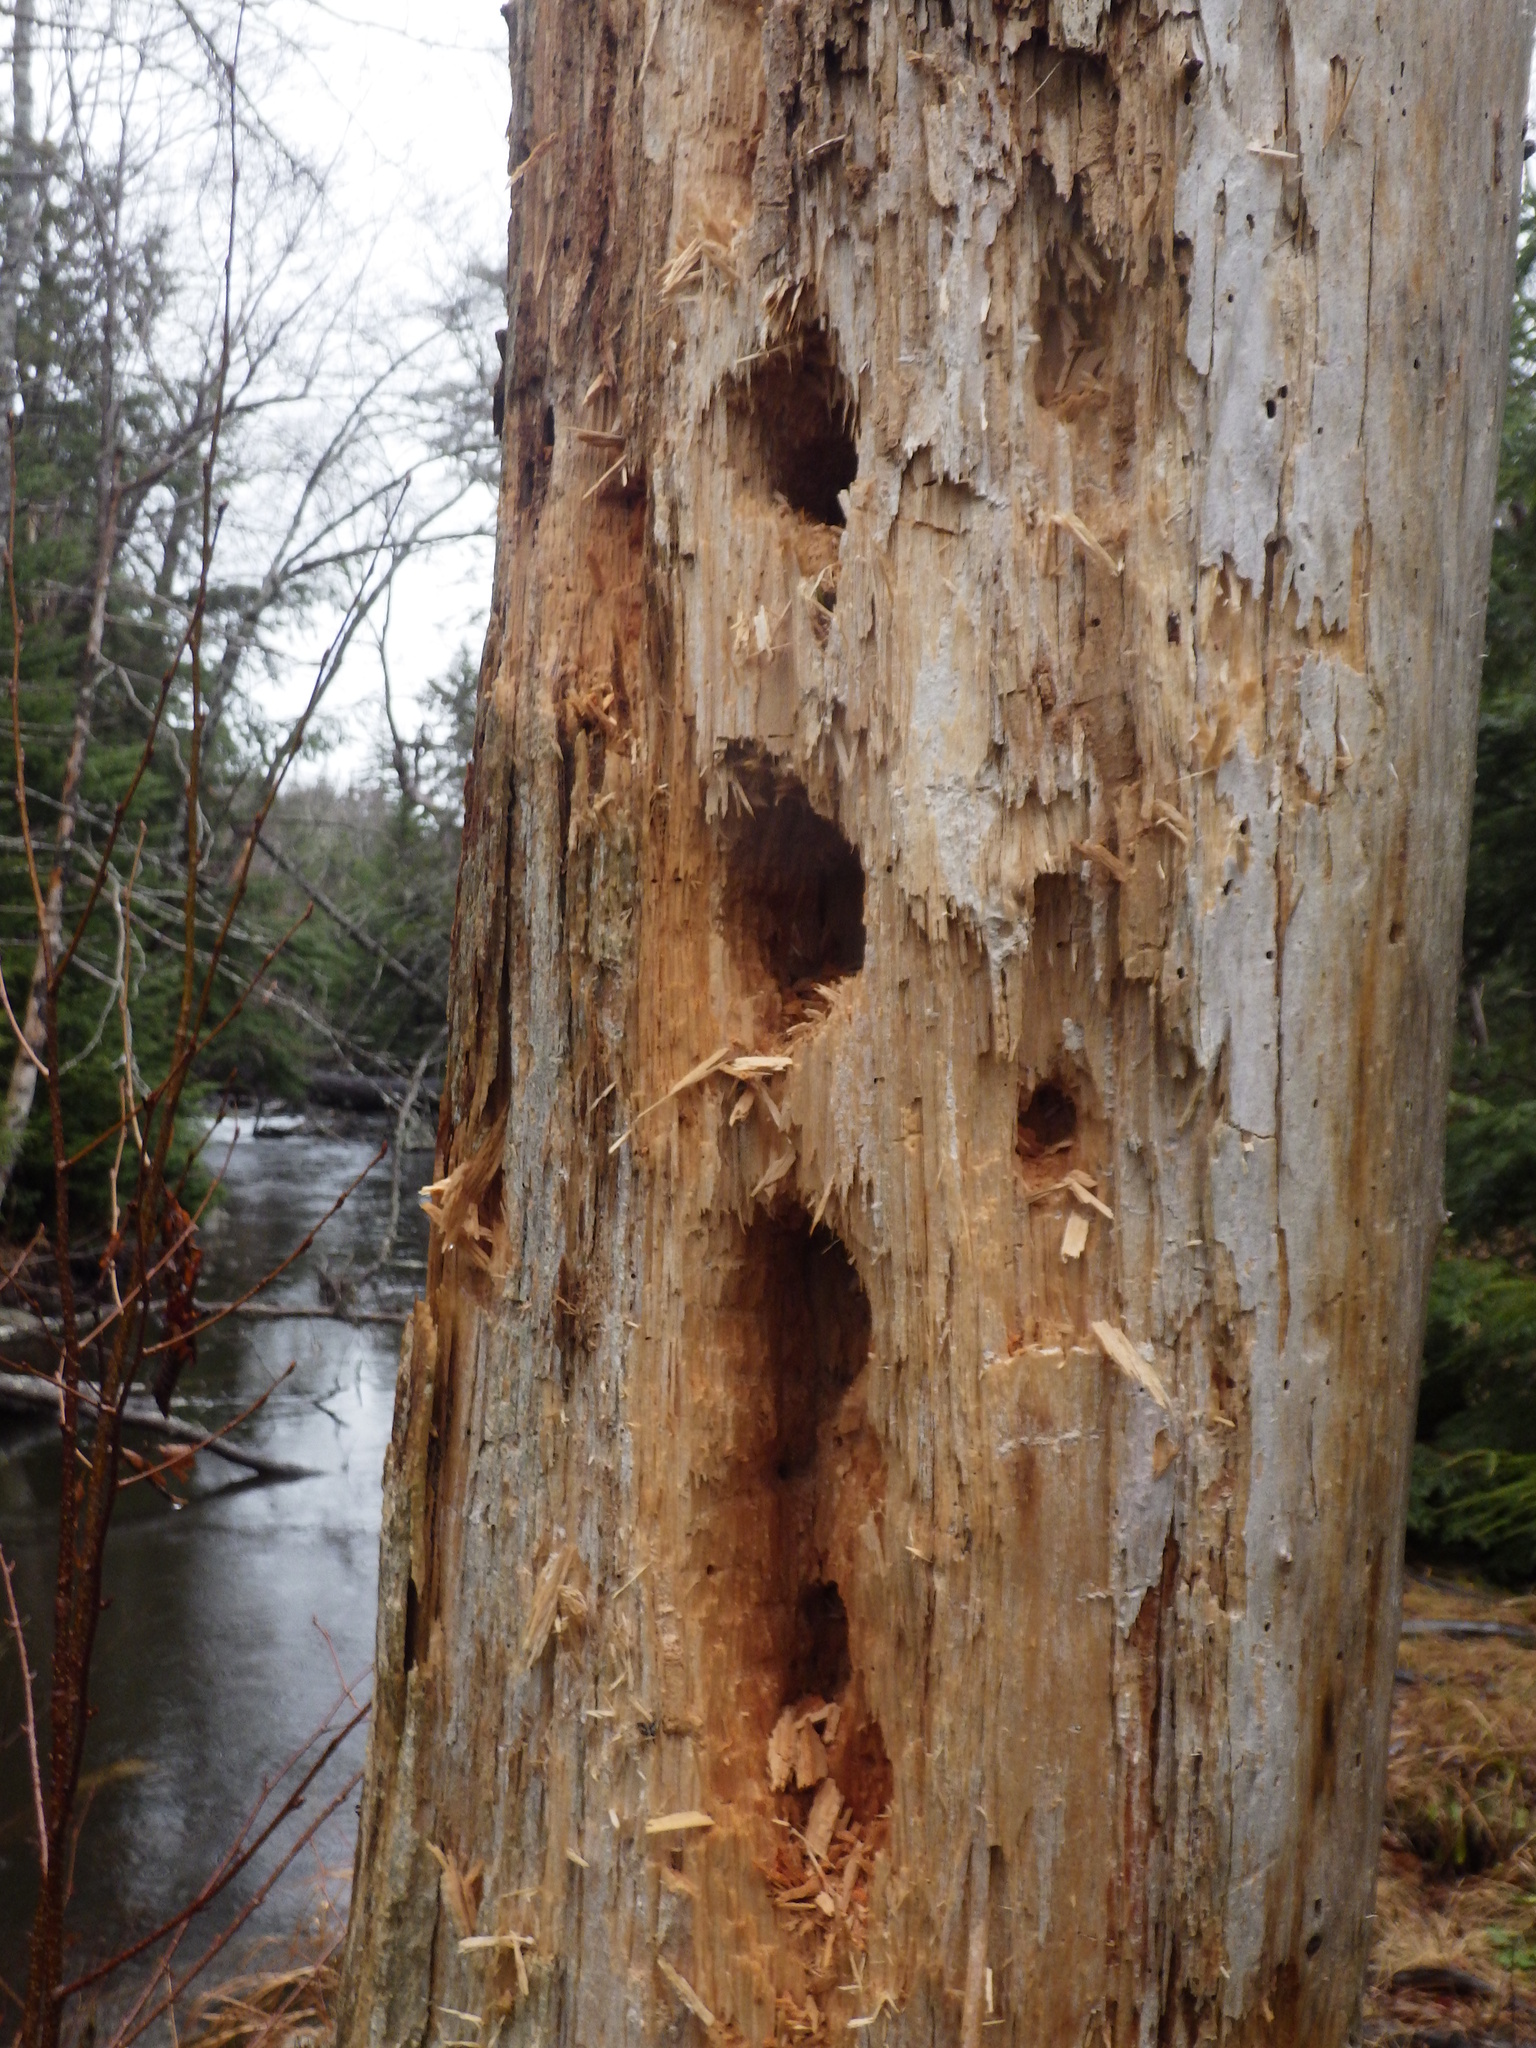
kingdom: Animalia
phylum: Chordata
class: Aves
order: Piciformes
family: Picidae
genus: Dryocopus
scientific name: Dryocopus pileatus
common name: Pileated woodpecker
